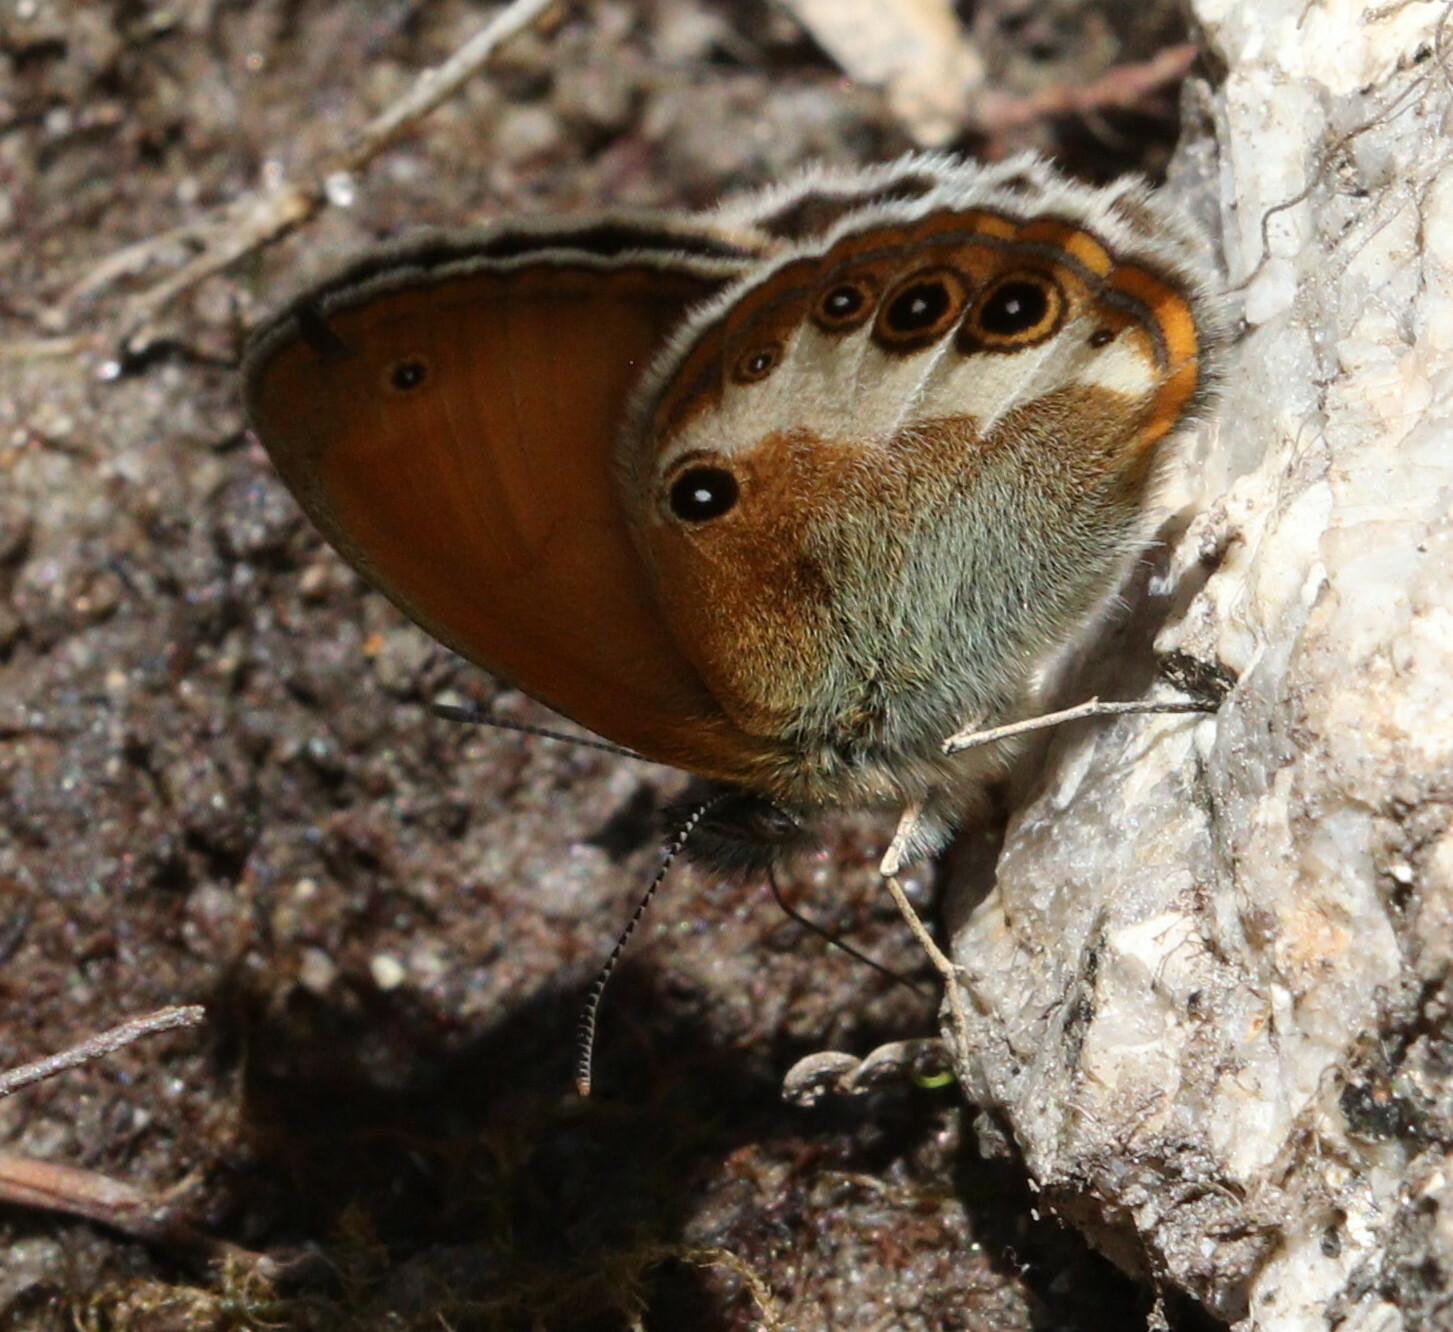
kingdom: Animalia
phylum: Arthropoda
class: Insecta
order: Lepidoptera
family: Nymphalidae
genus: Coenonympha
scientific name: Coenonympha arcania
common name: Pearly heath
